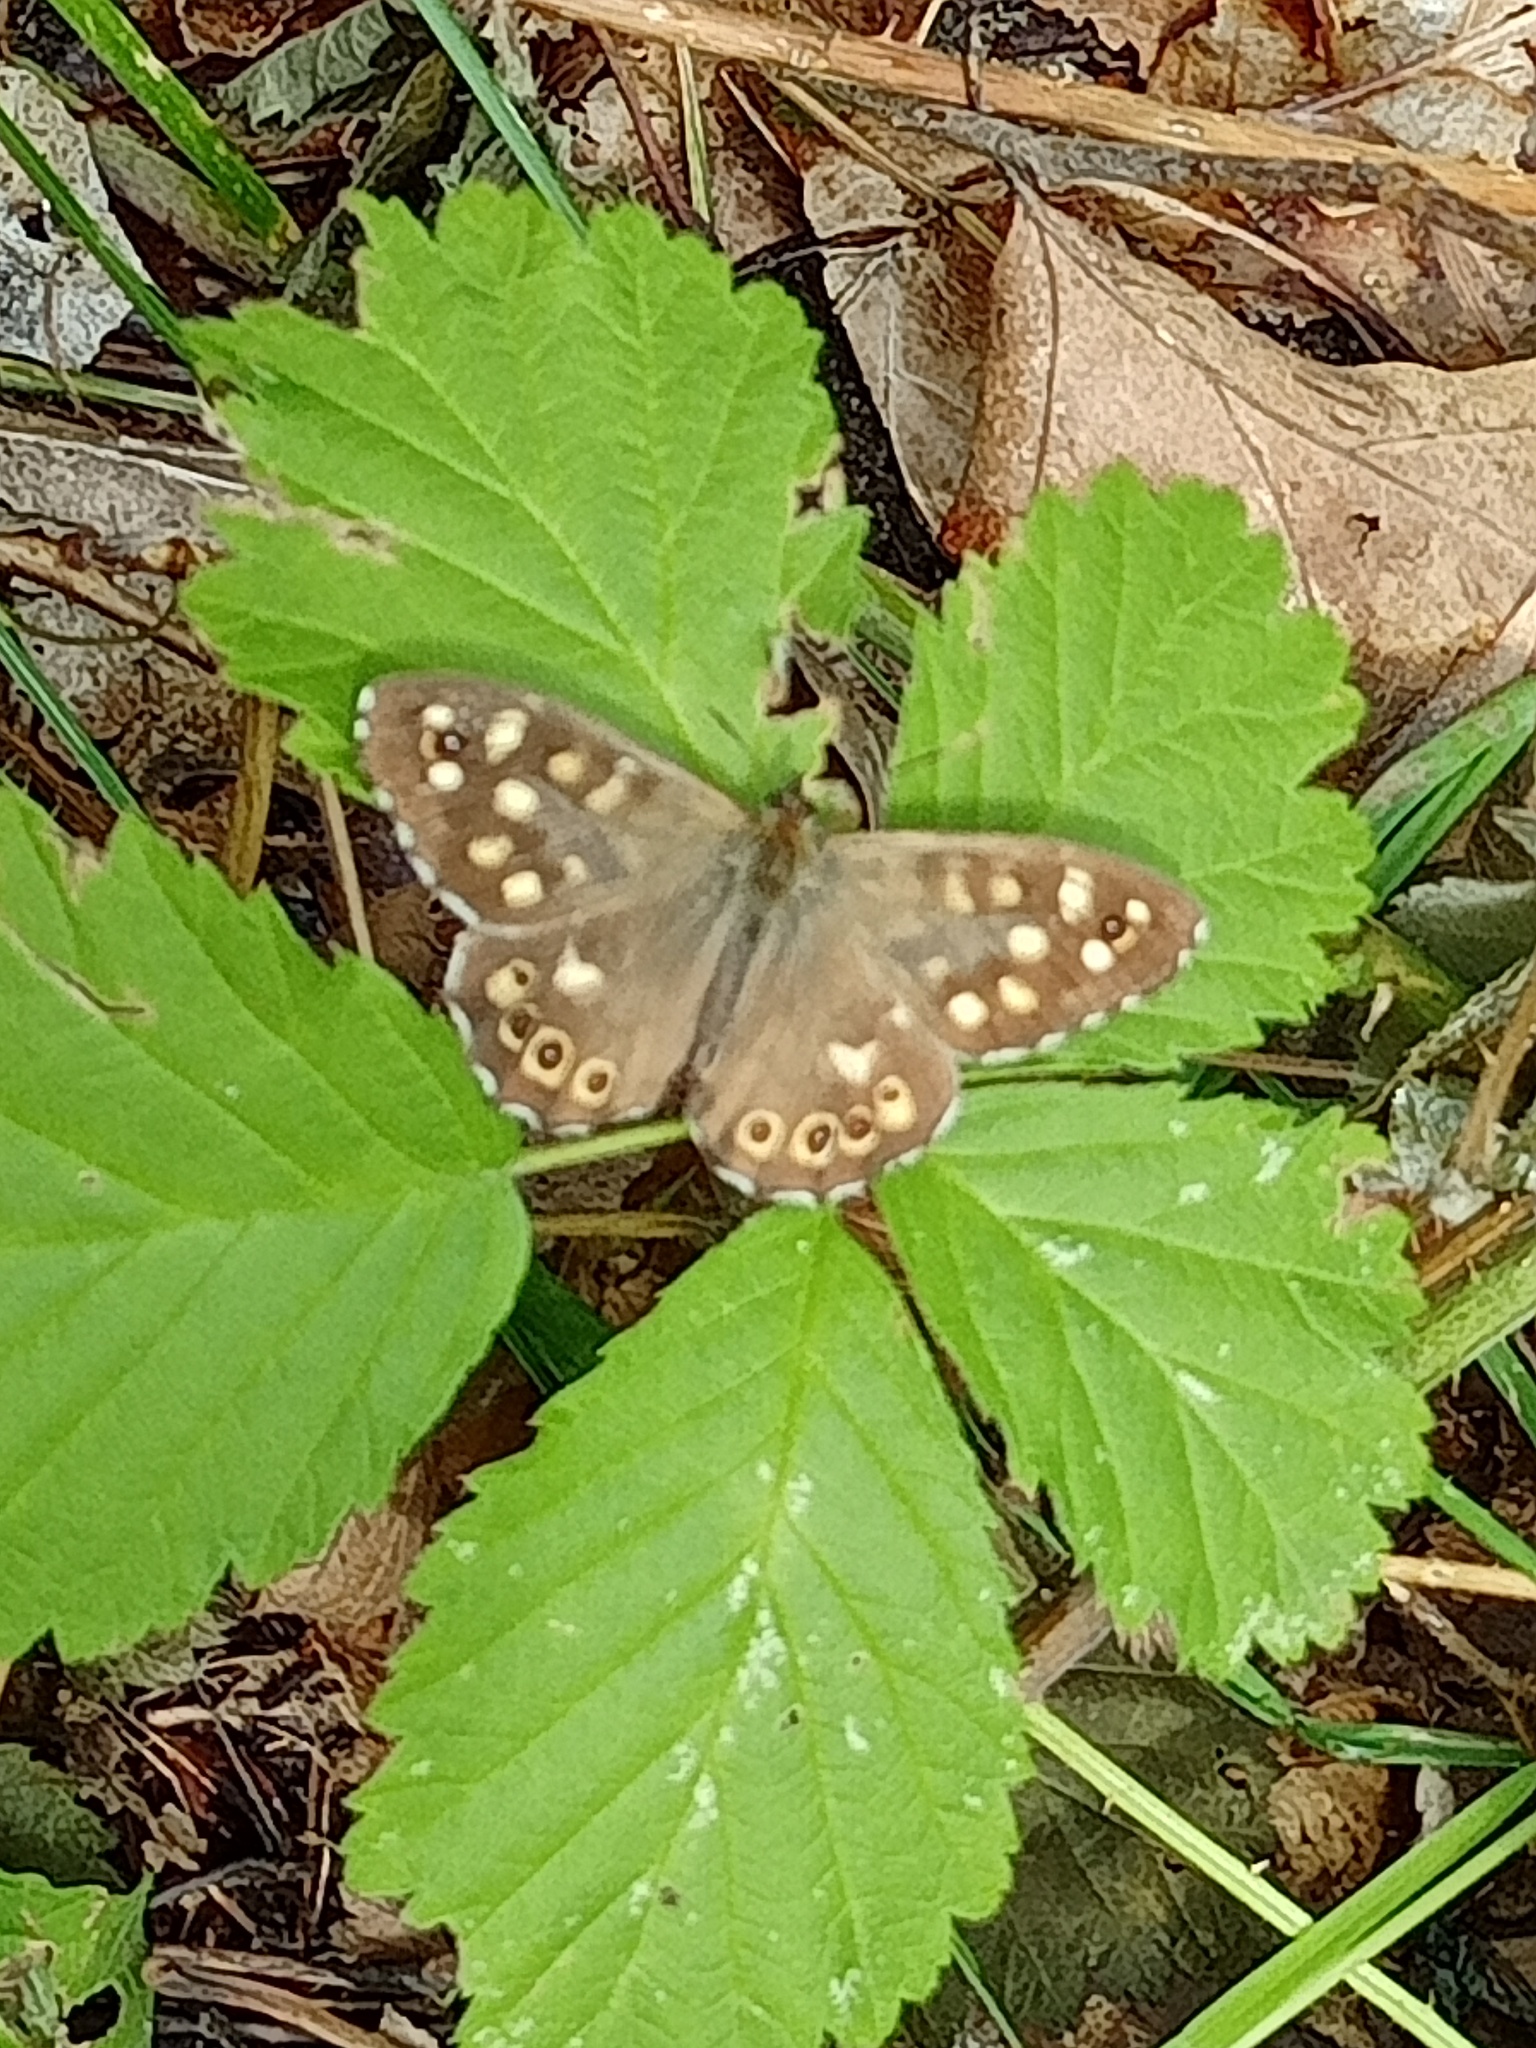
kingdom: Animalia
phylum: Arthropoda
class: Insecta
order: Lepidoptera
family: Nymphalidae
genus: Pararge
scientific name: Pararge aegeria
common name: Speckled wood
